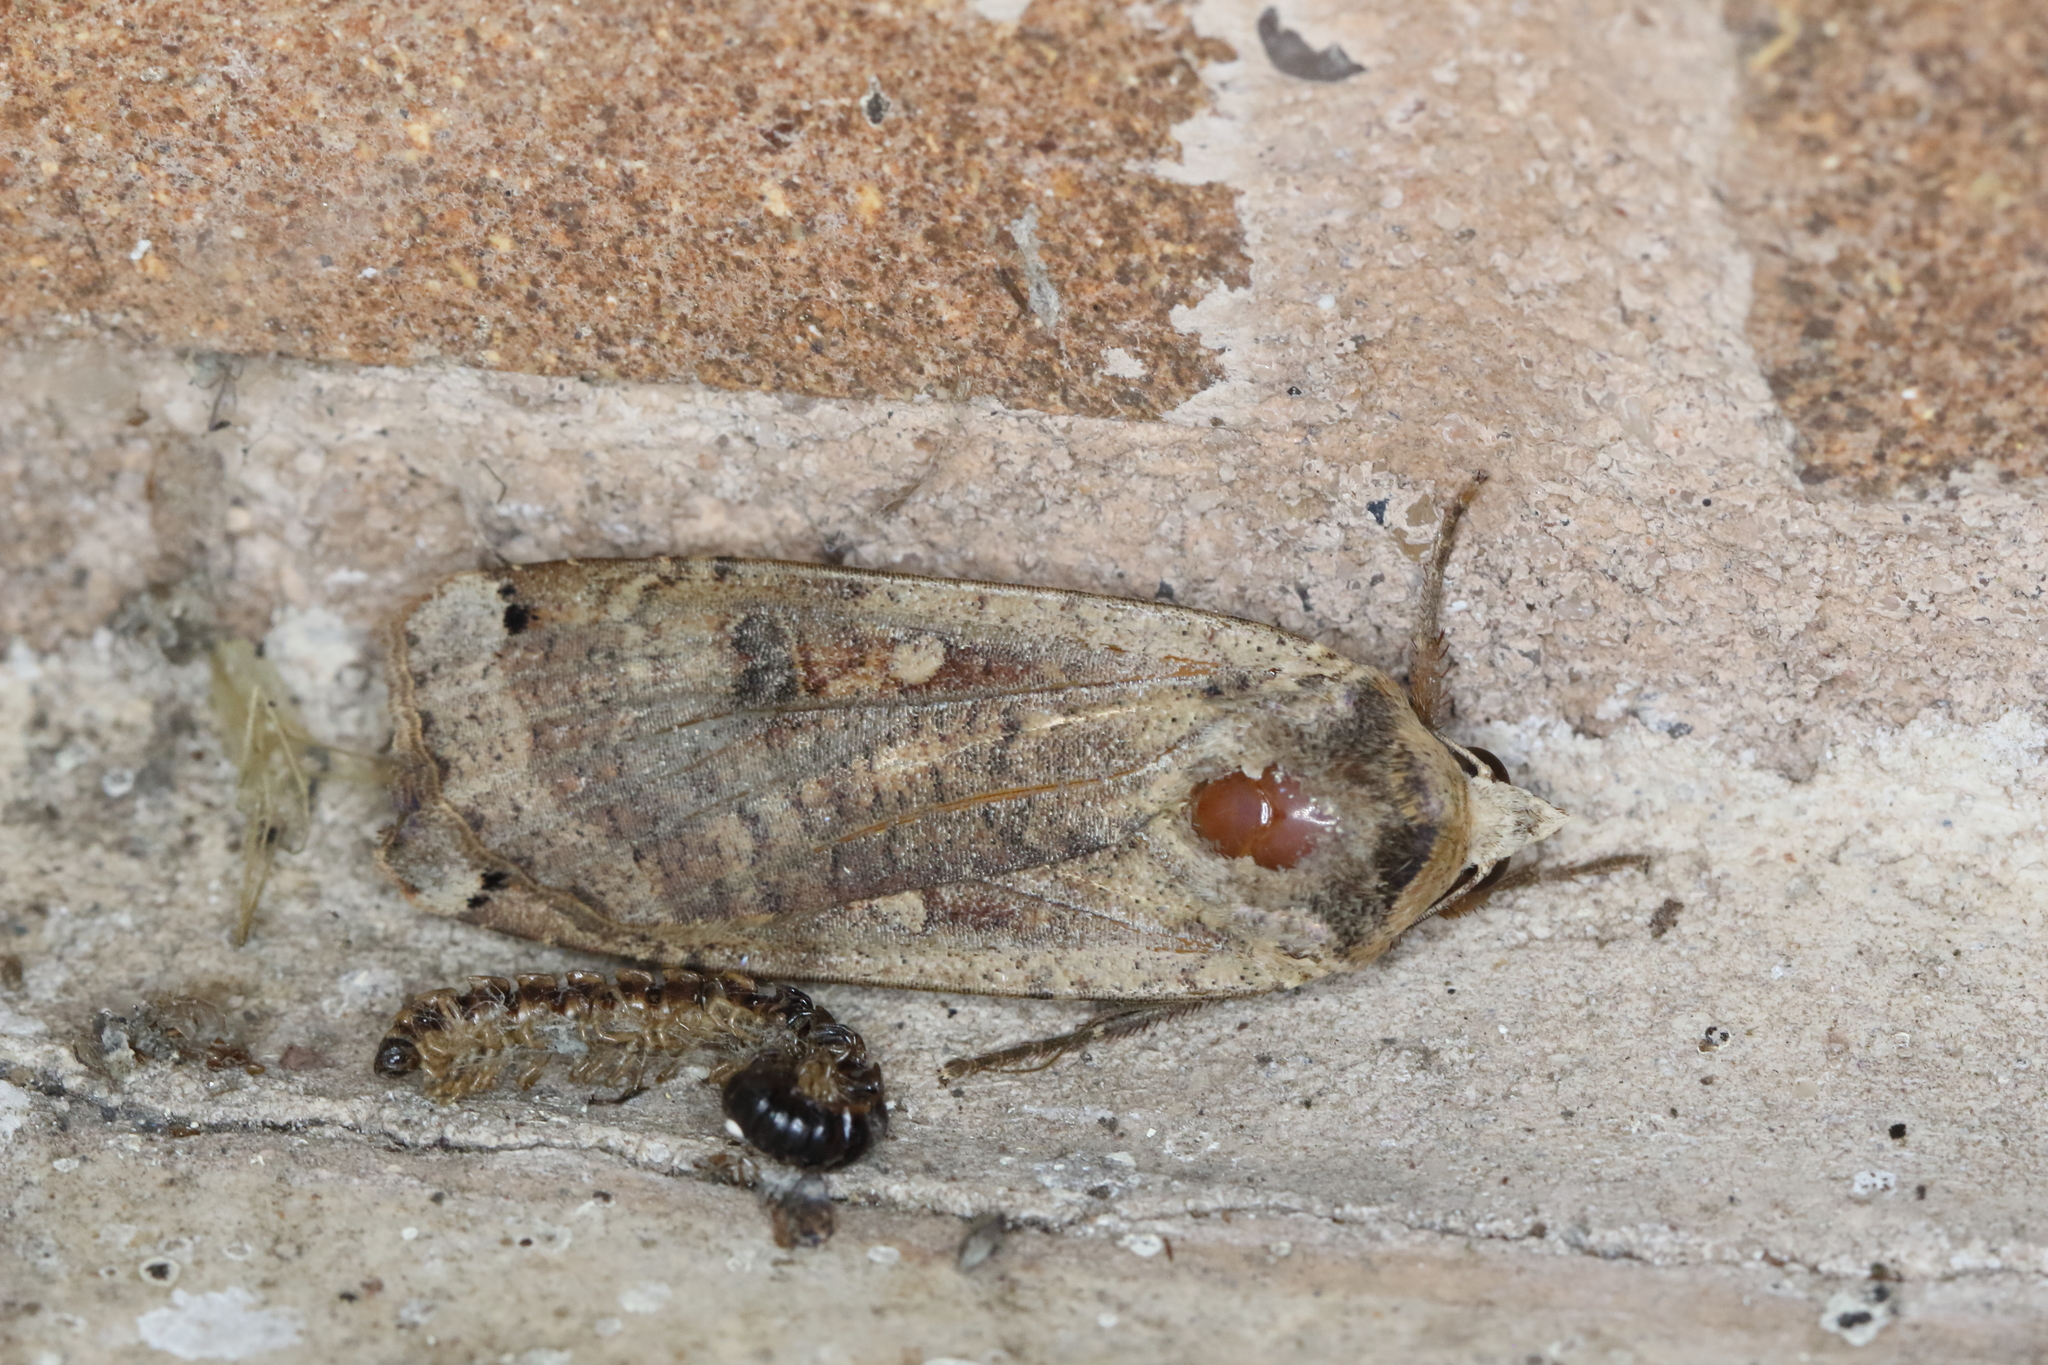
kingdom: Animalia
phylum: Arthropoda
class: Insecta
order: Lepidoptera
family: Noctuidae
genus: Noctua
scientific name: Noctua pronuba
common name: Large yellow underwing
